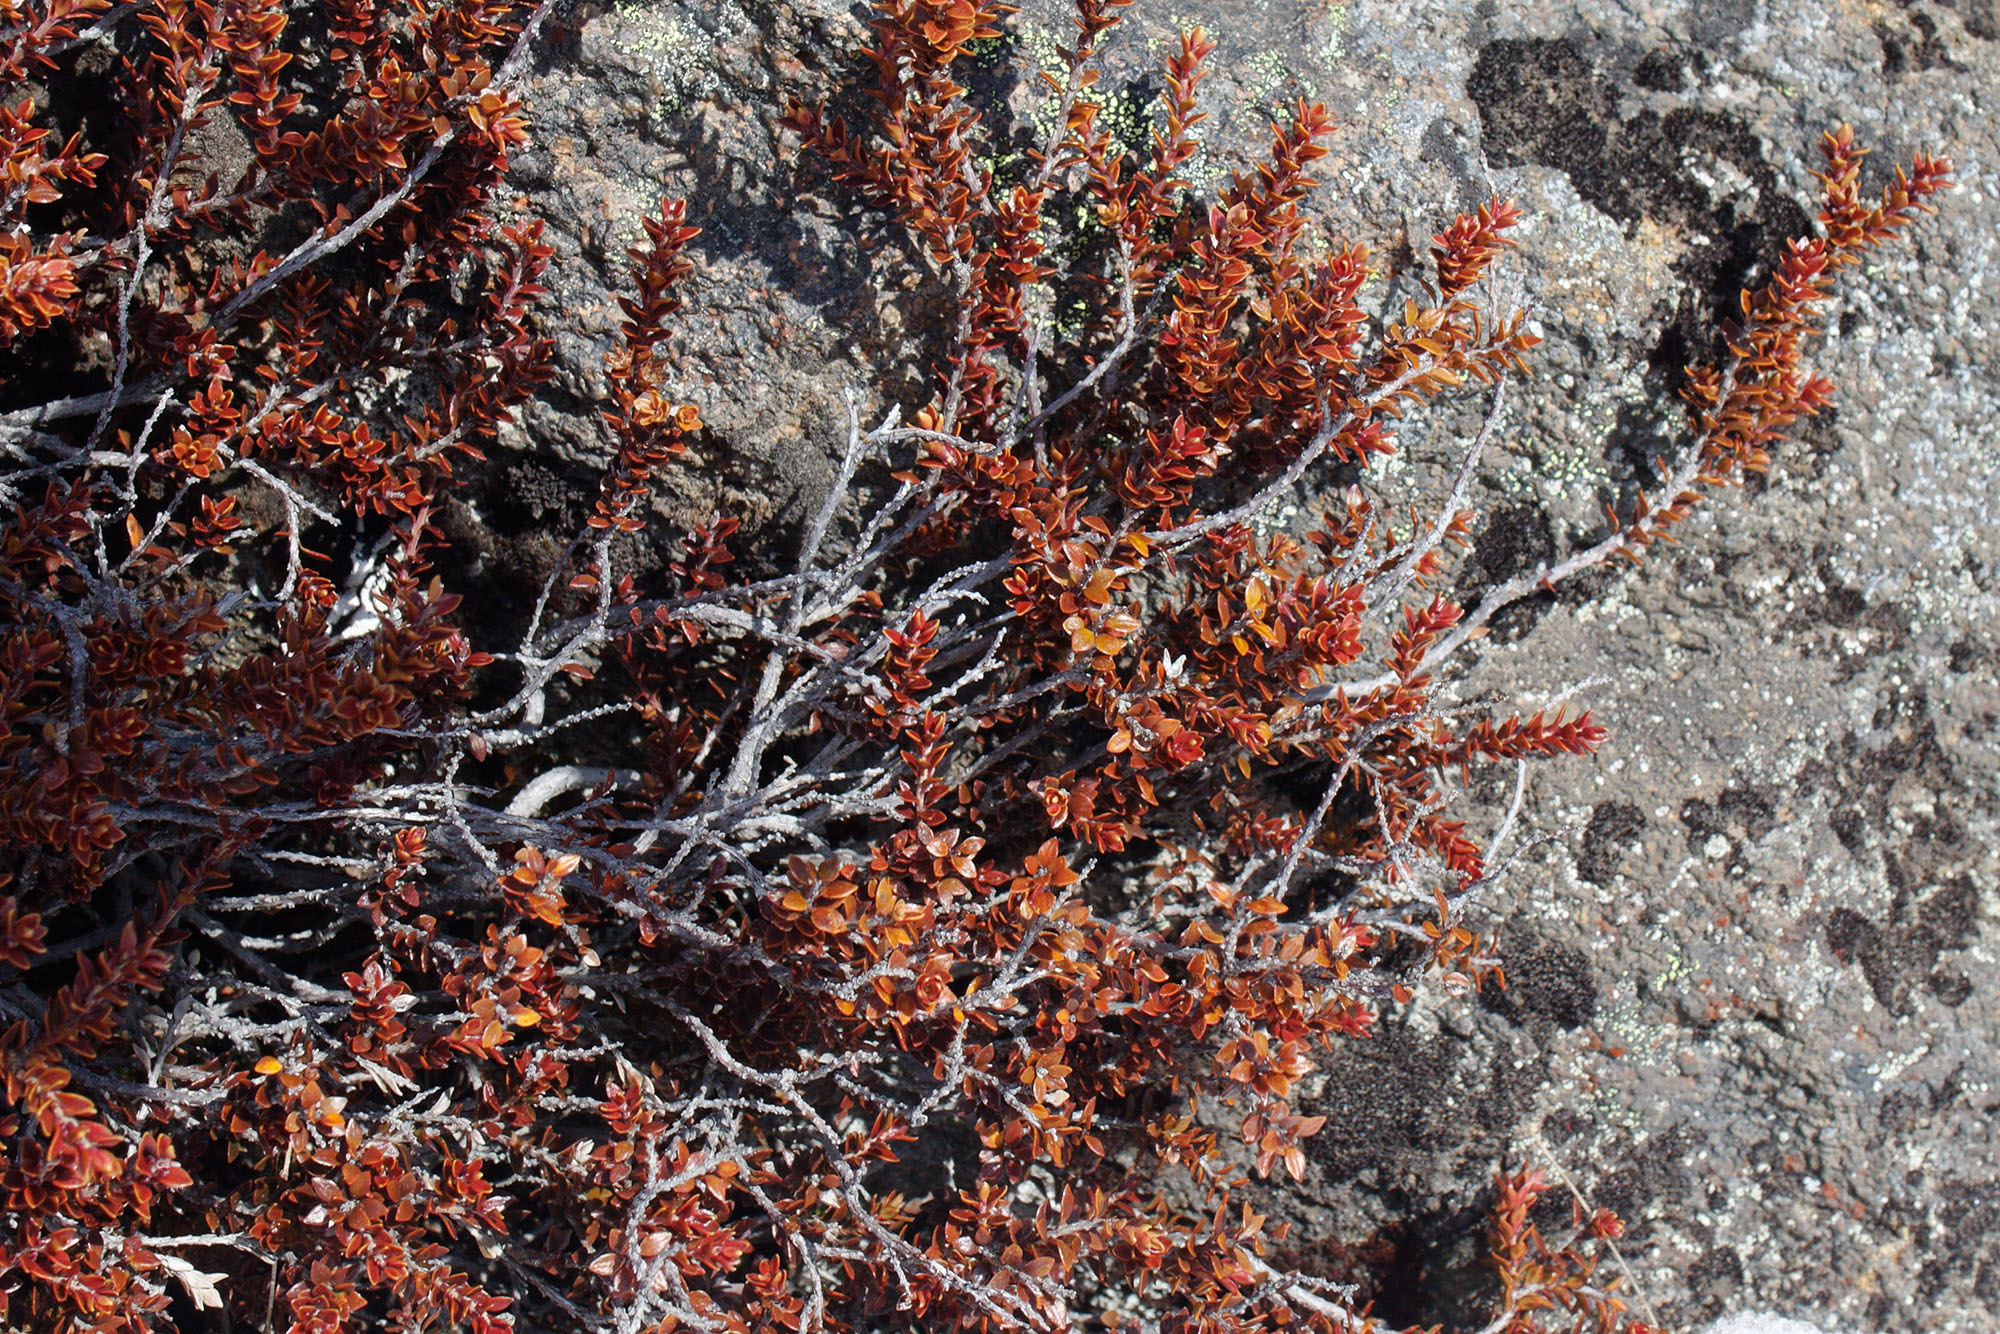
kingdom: Plantae
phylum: Tracheophyta
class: Magnoliopsida
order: Ericales
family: Ericaceae
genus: Epacris
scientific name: Epacris alpina
